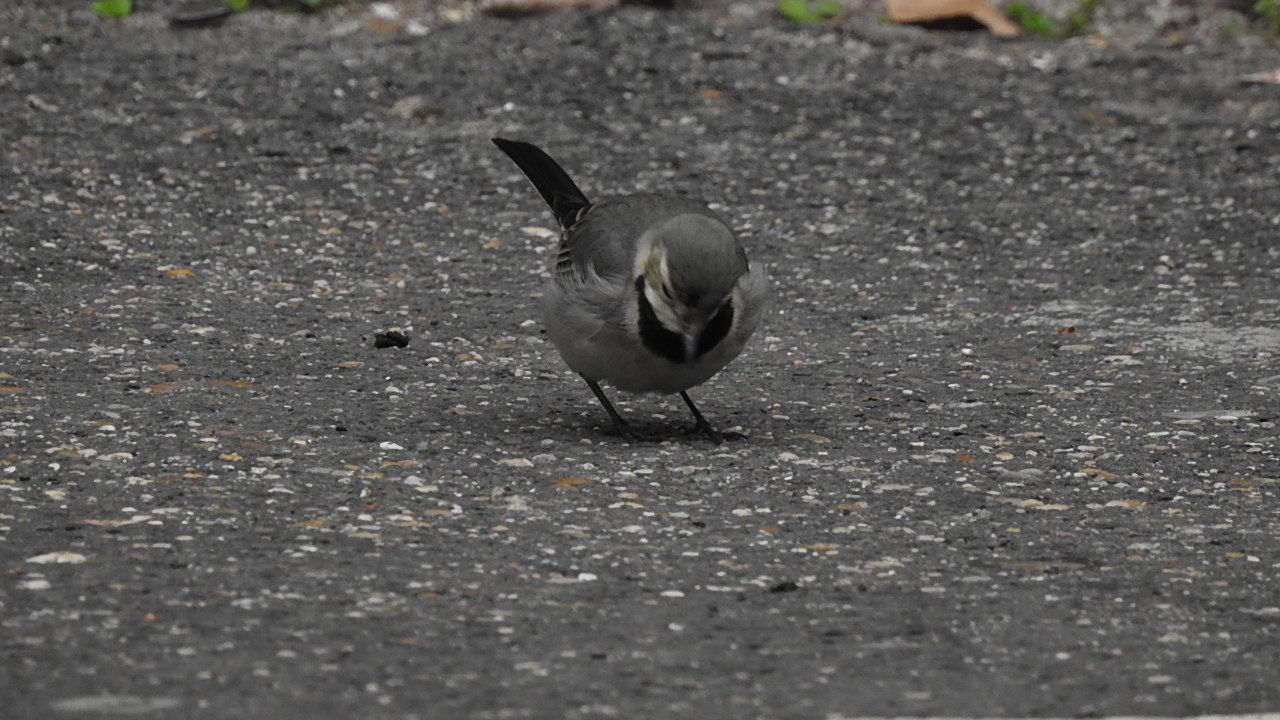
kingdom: Animalia
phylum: Chordata
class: Aves
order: Passeriformes
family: Motacillidae
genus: Motacilla
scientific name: Motacilla alba
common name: White wagtail
